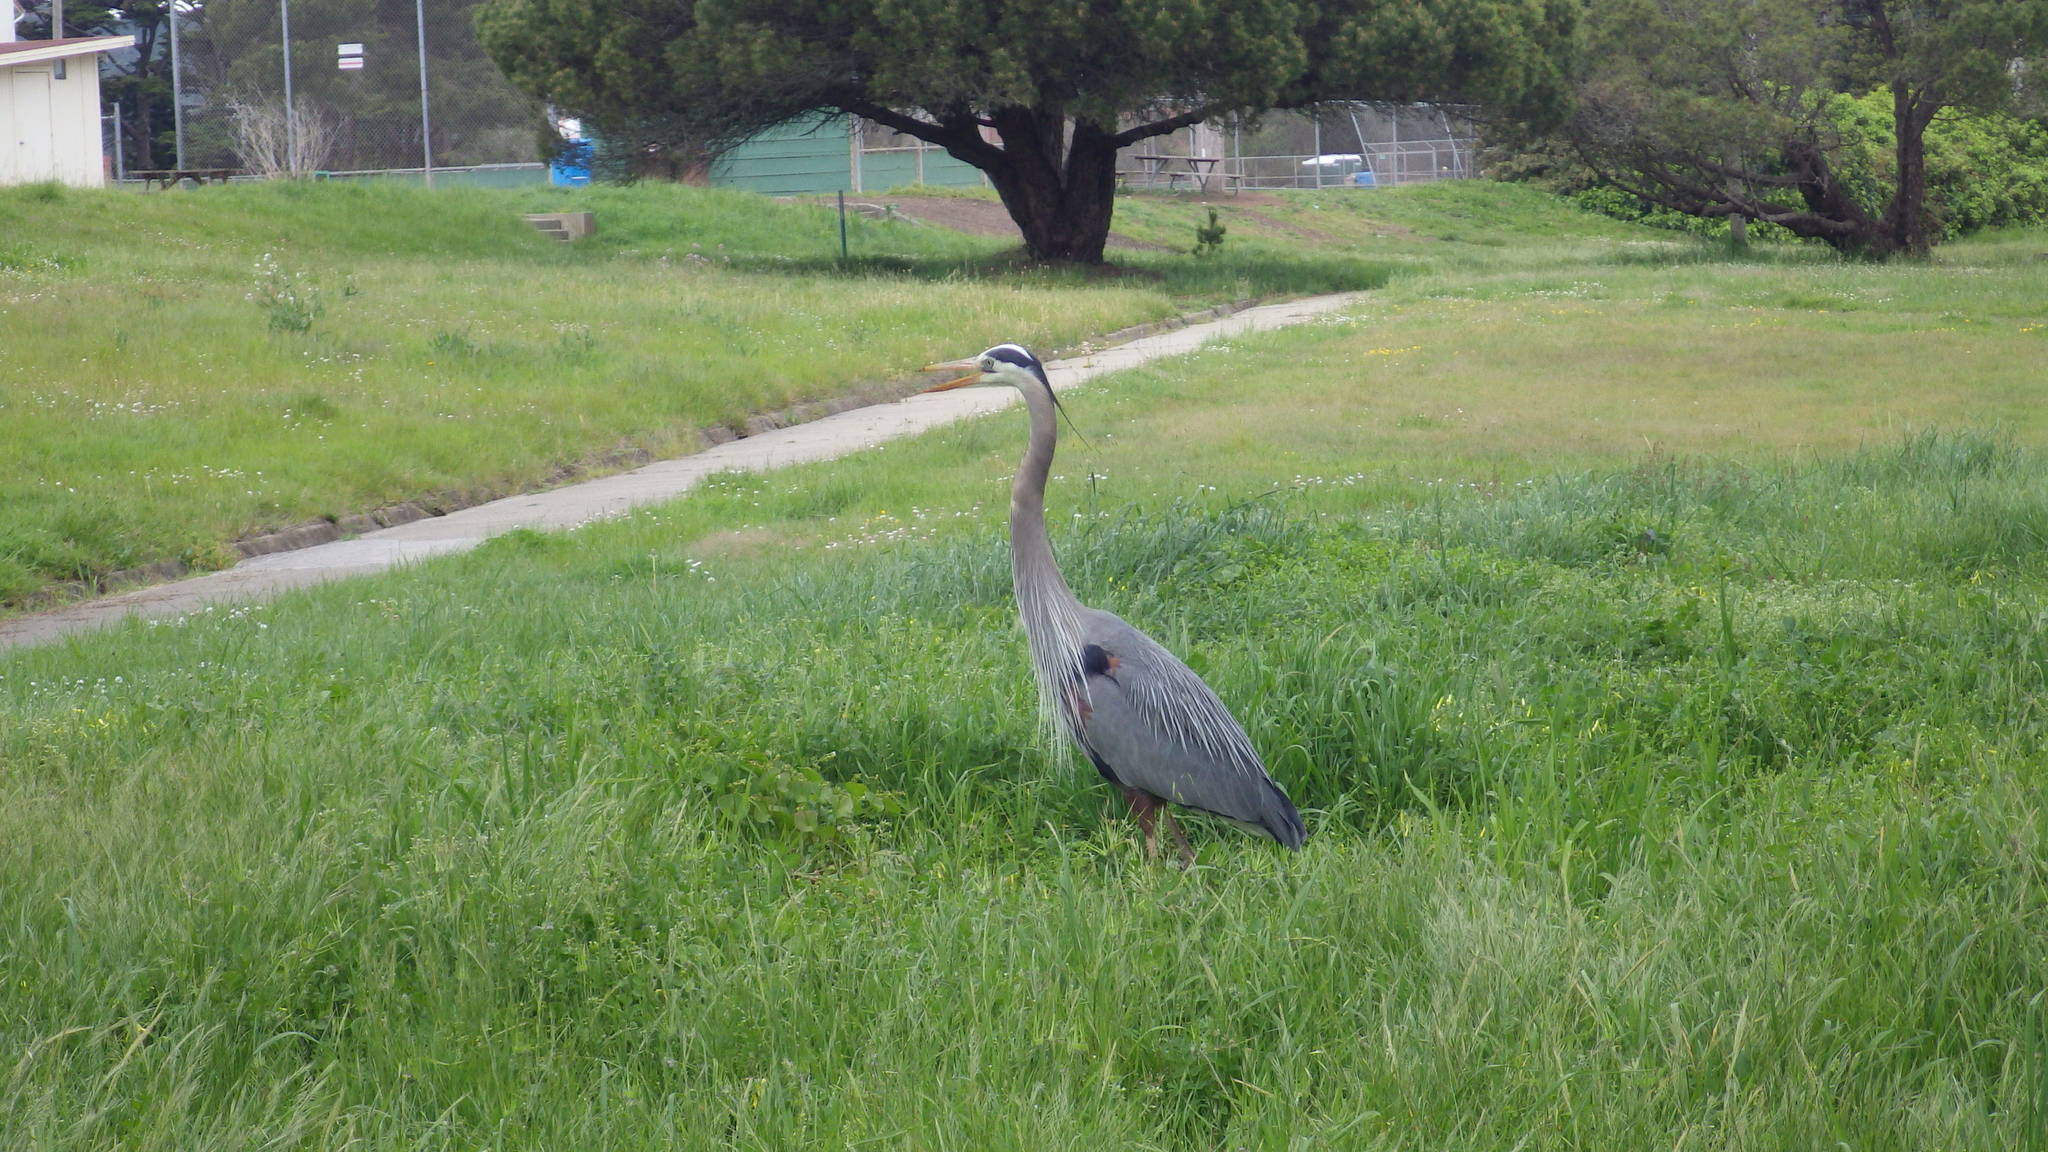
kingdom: Animalia
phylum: Chordata
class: Aves
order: Pelecaniformes
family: Ardeidae
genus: Ardea
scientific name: Ardea herodias
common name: Great blue heron
